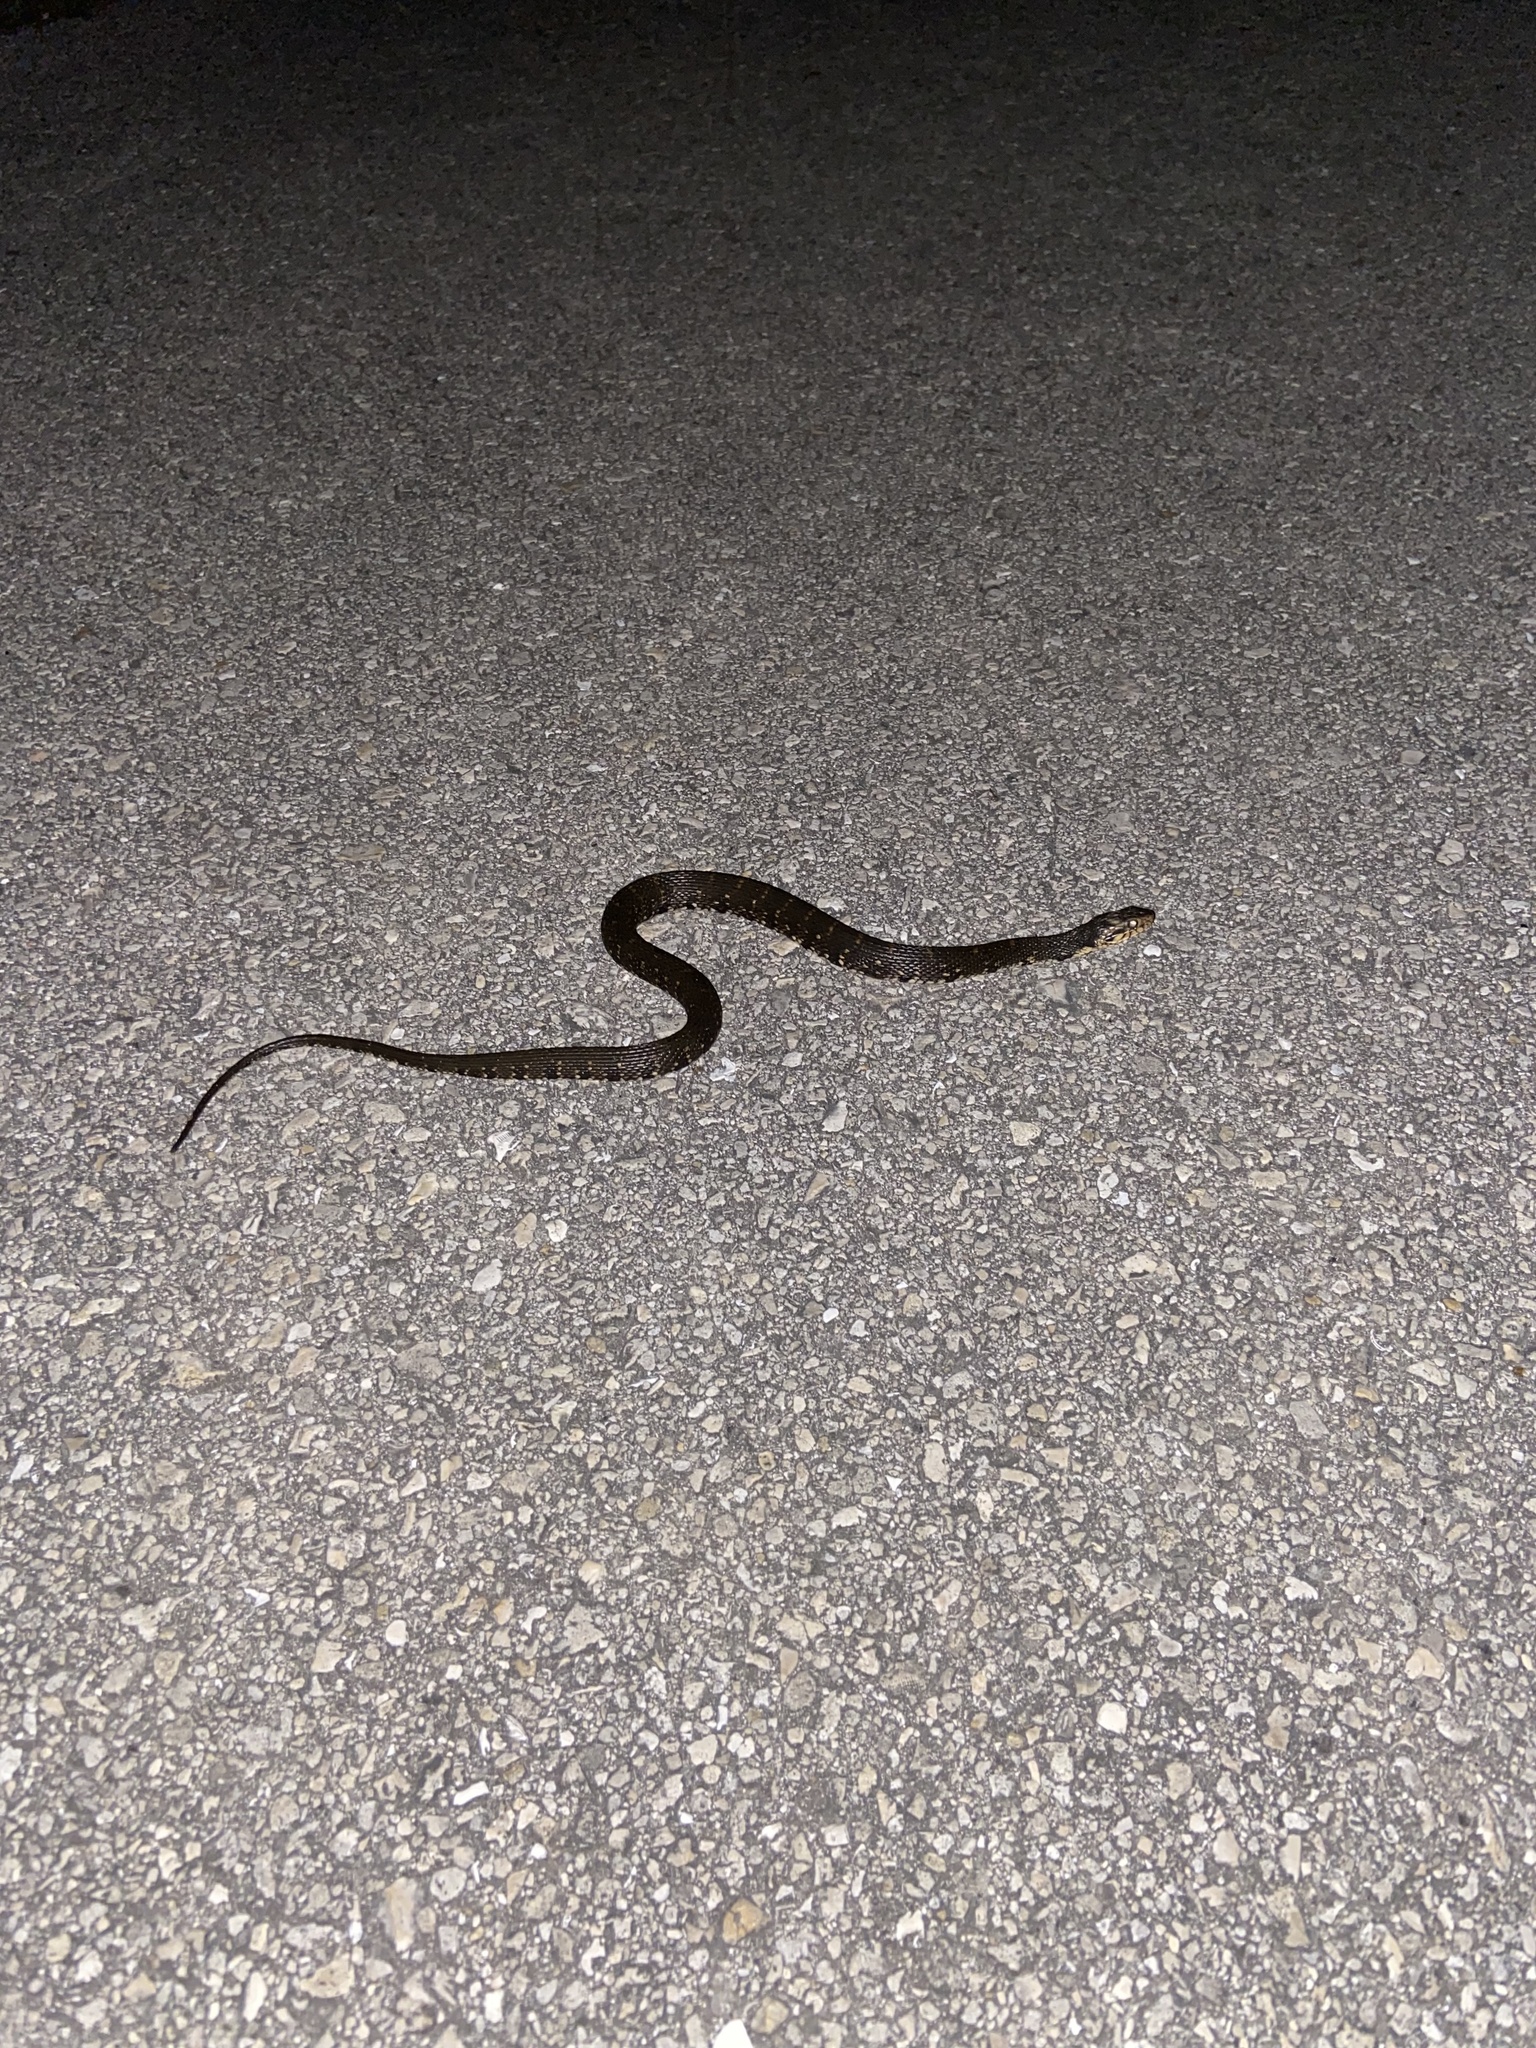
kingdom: Animalia
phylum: Chordata
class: Squamata
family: Colubridae
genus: Nerodia
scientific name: Nerodia fasciata
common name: Southern water snake
